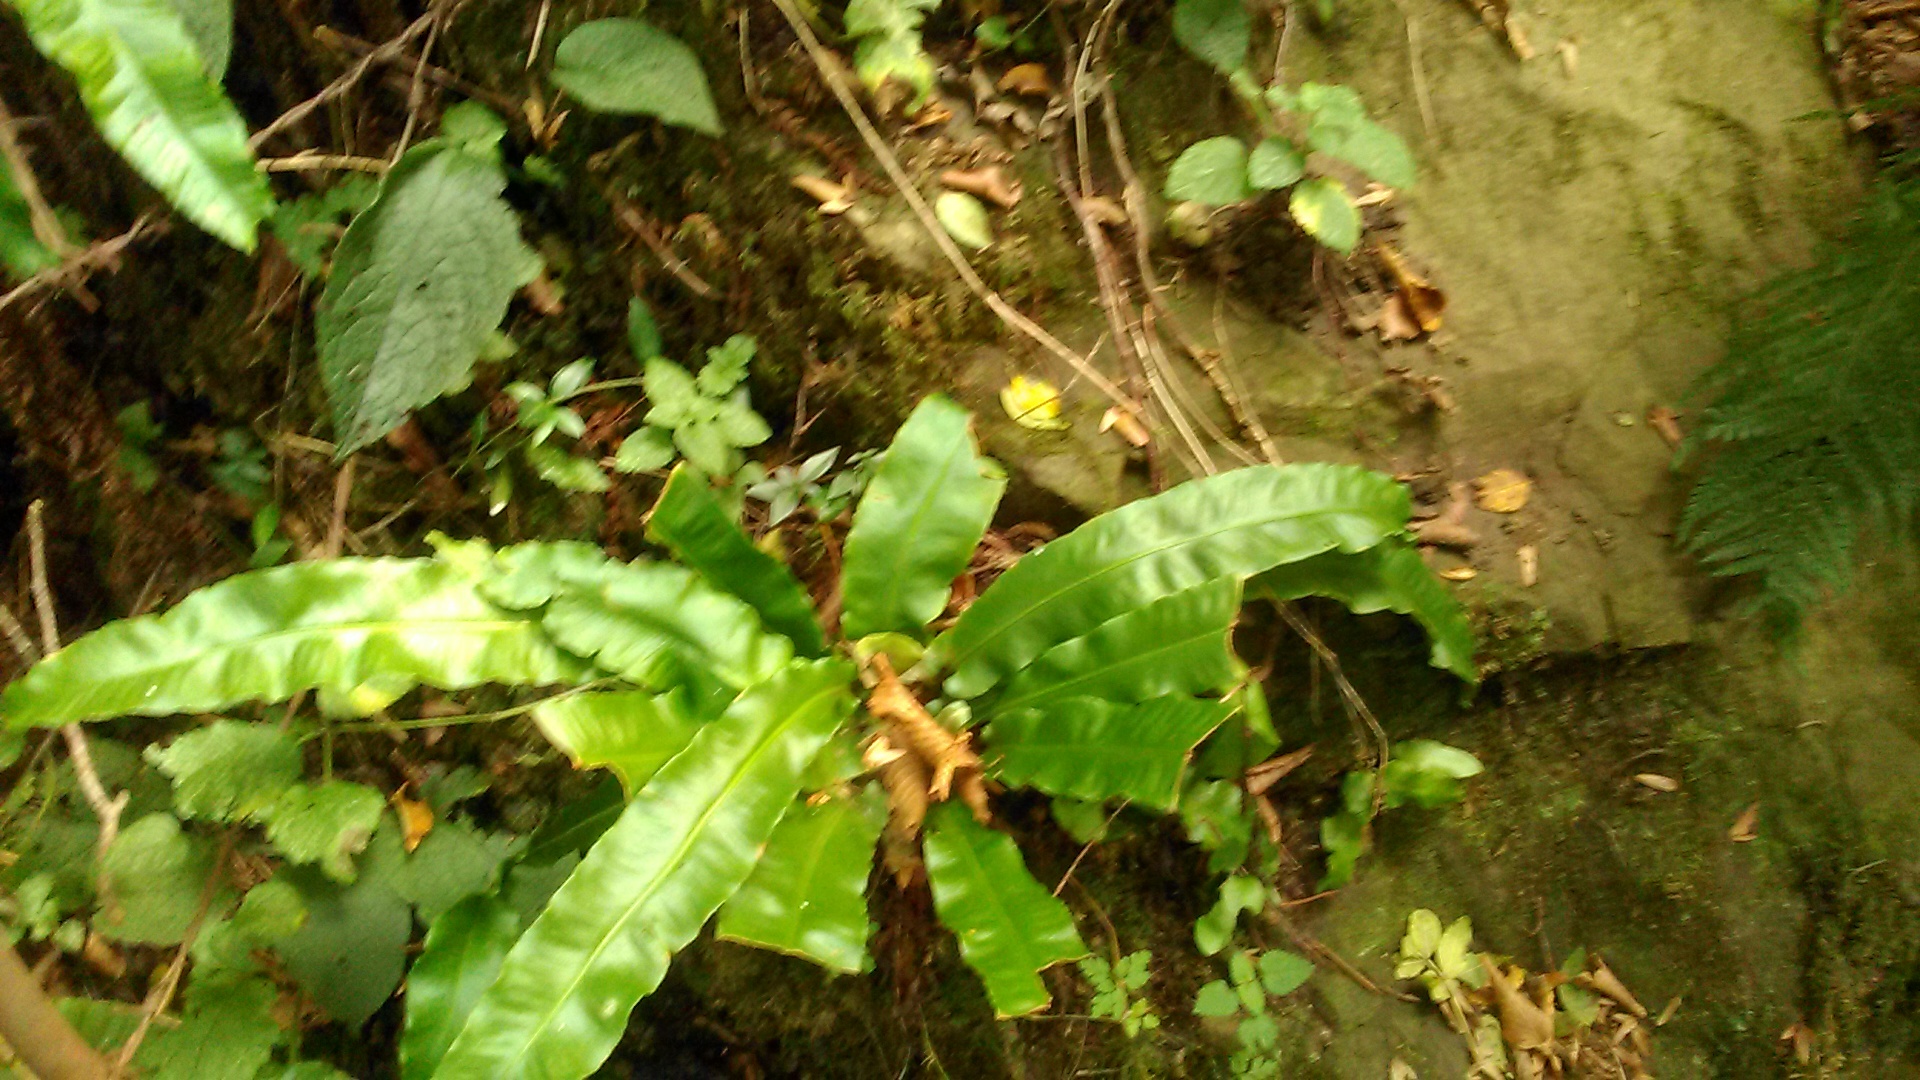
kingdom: Plantae
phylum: Tracheophyta
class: Polypodiopsida
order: Polypodiales
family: Aspleniaceae
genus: Asplenium
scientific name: Asplenium scolopendrium
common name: Hart's-tongue fern
